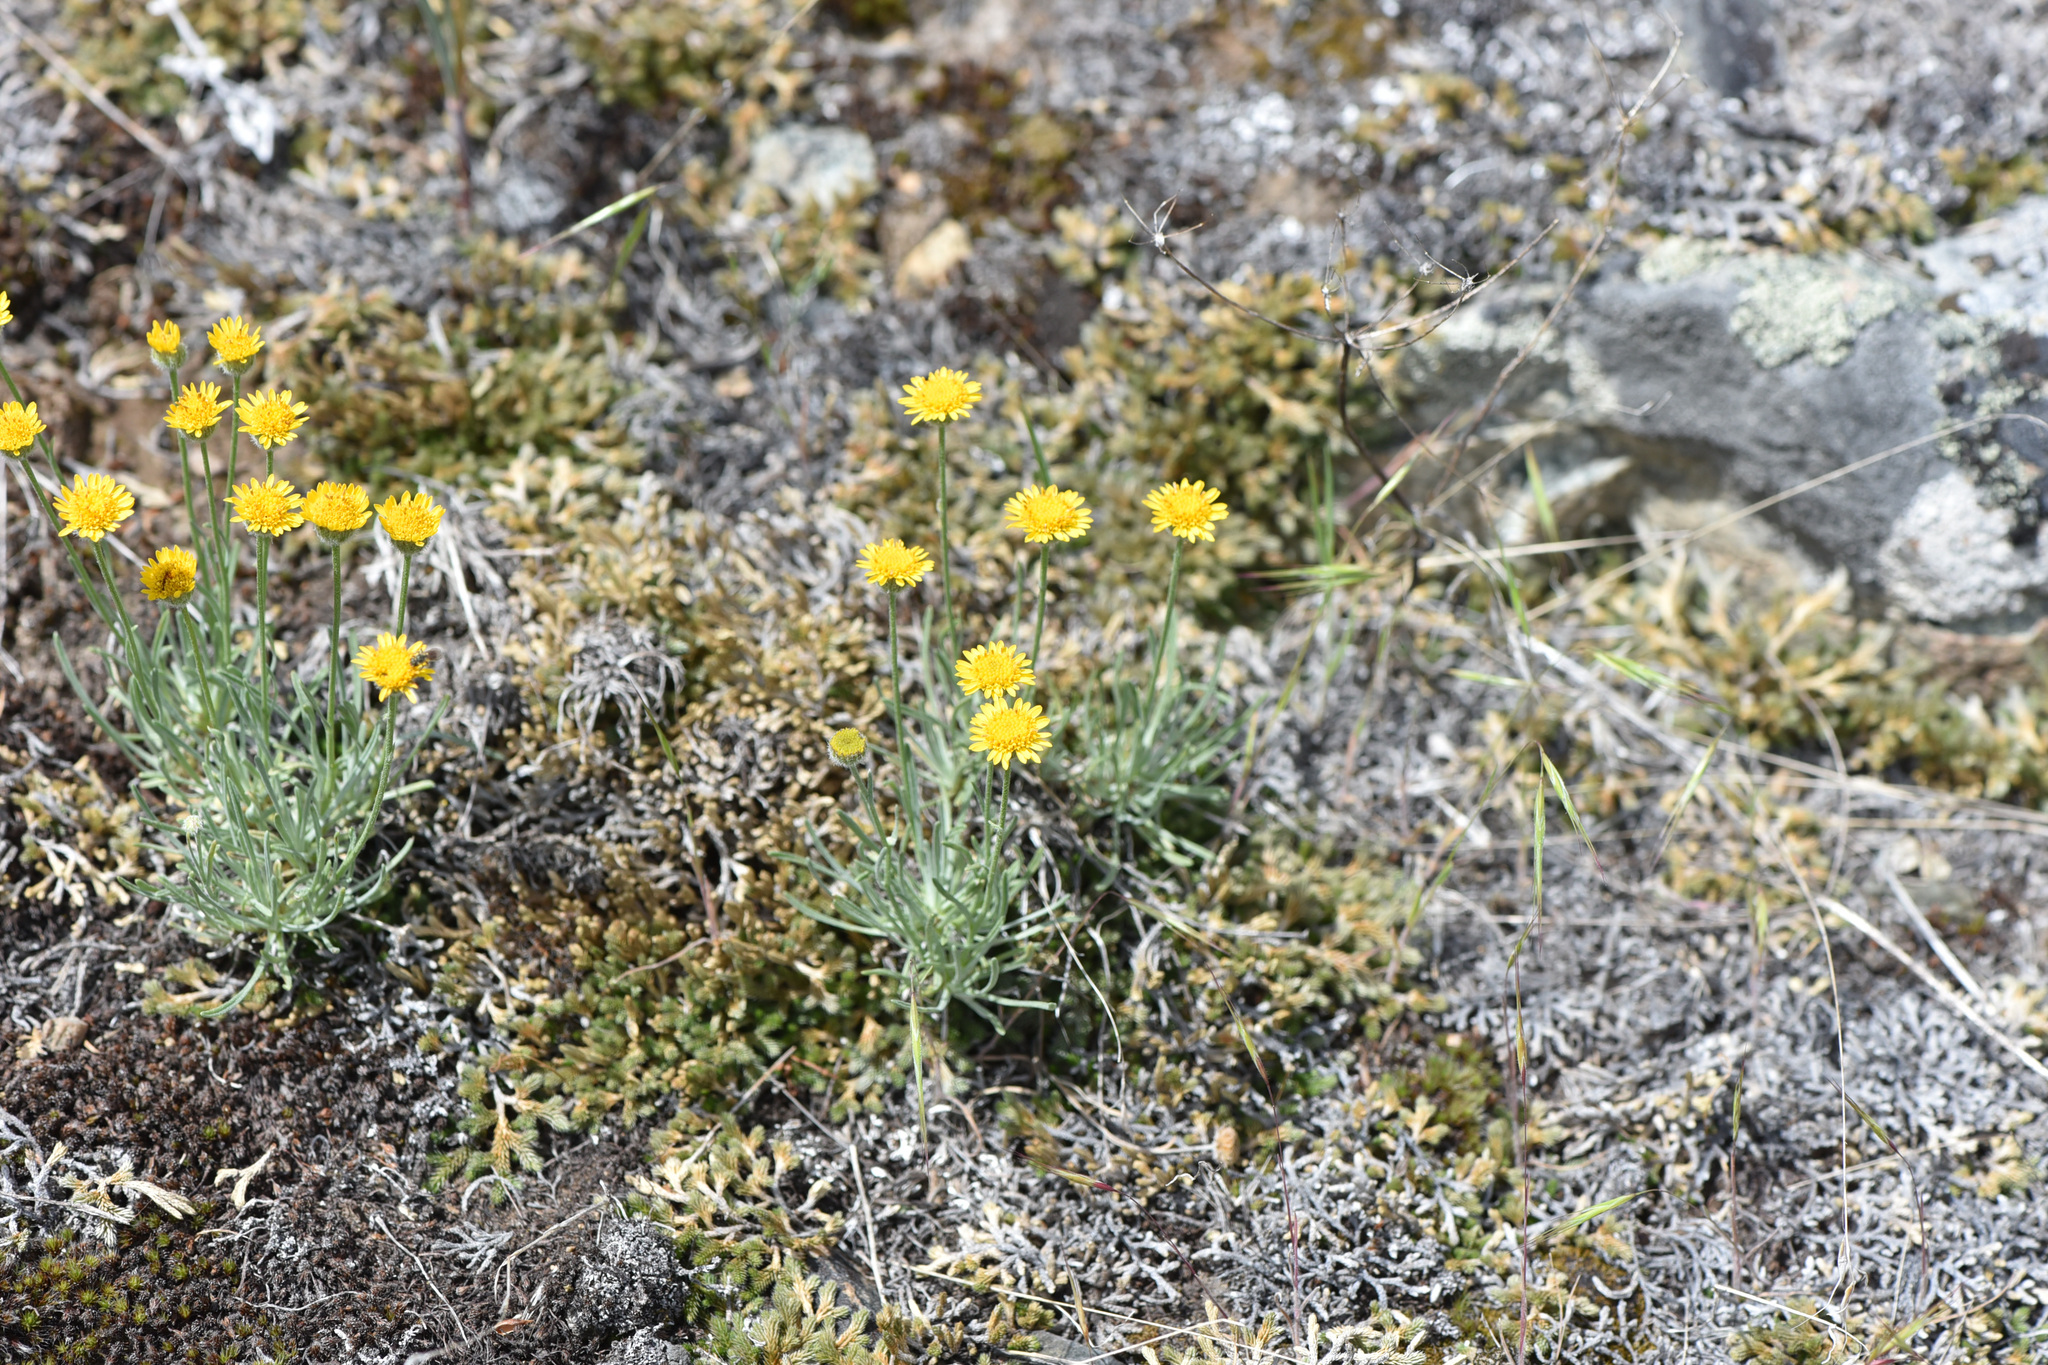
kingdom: Plantae
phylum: Tracheophyta
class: Magnoliopsida
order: Asterales
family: Asteraceae
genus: Erigeron
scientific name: Erigeron linearis
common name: Desert yellow fleabane
